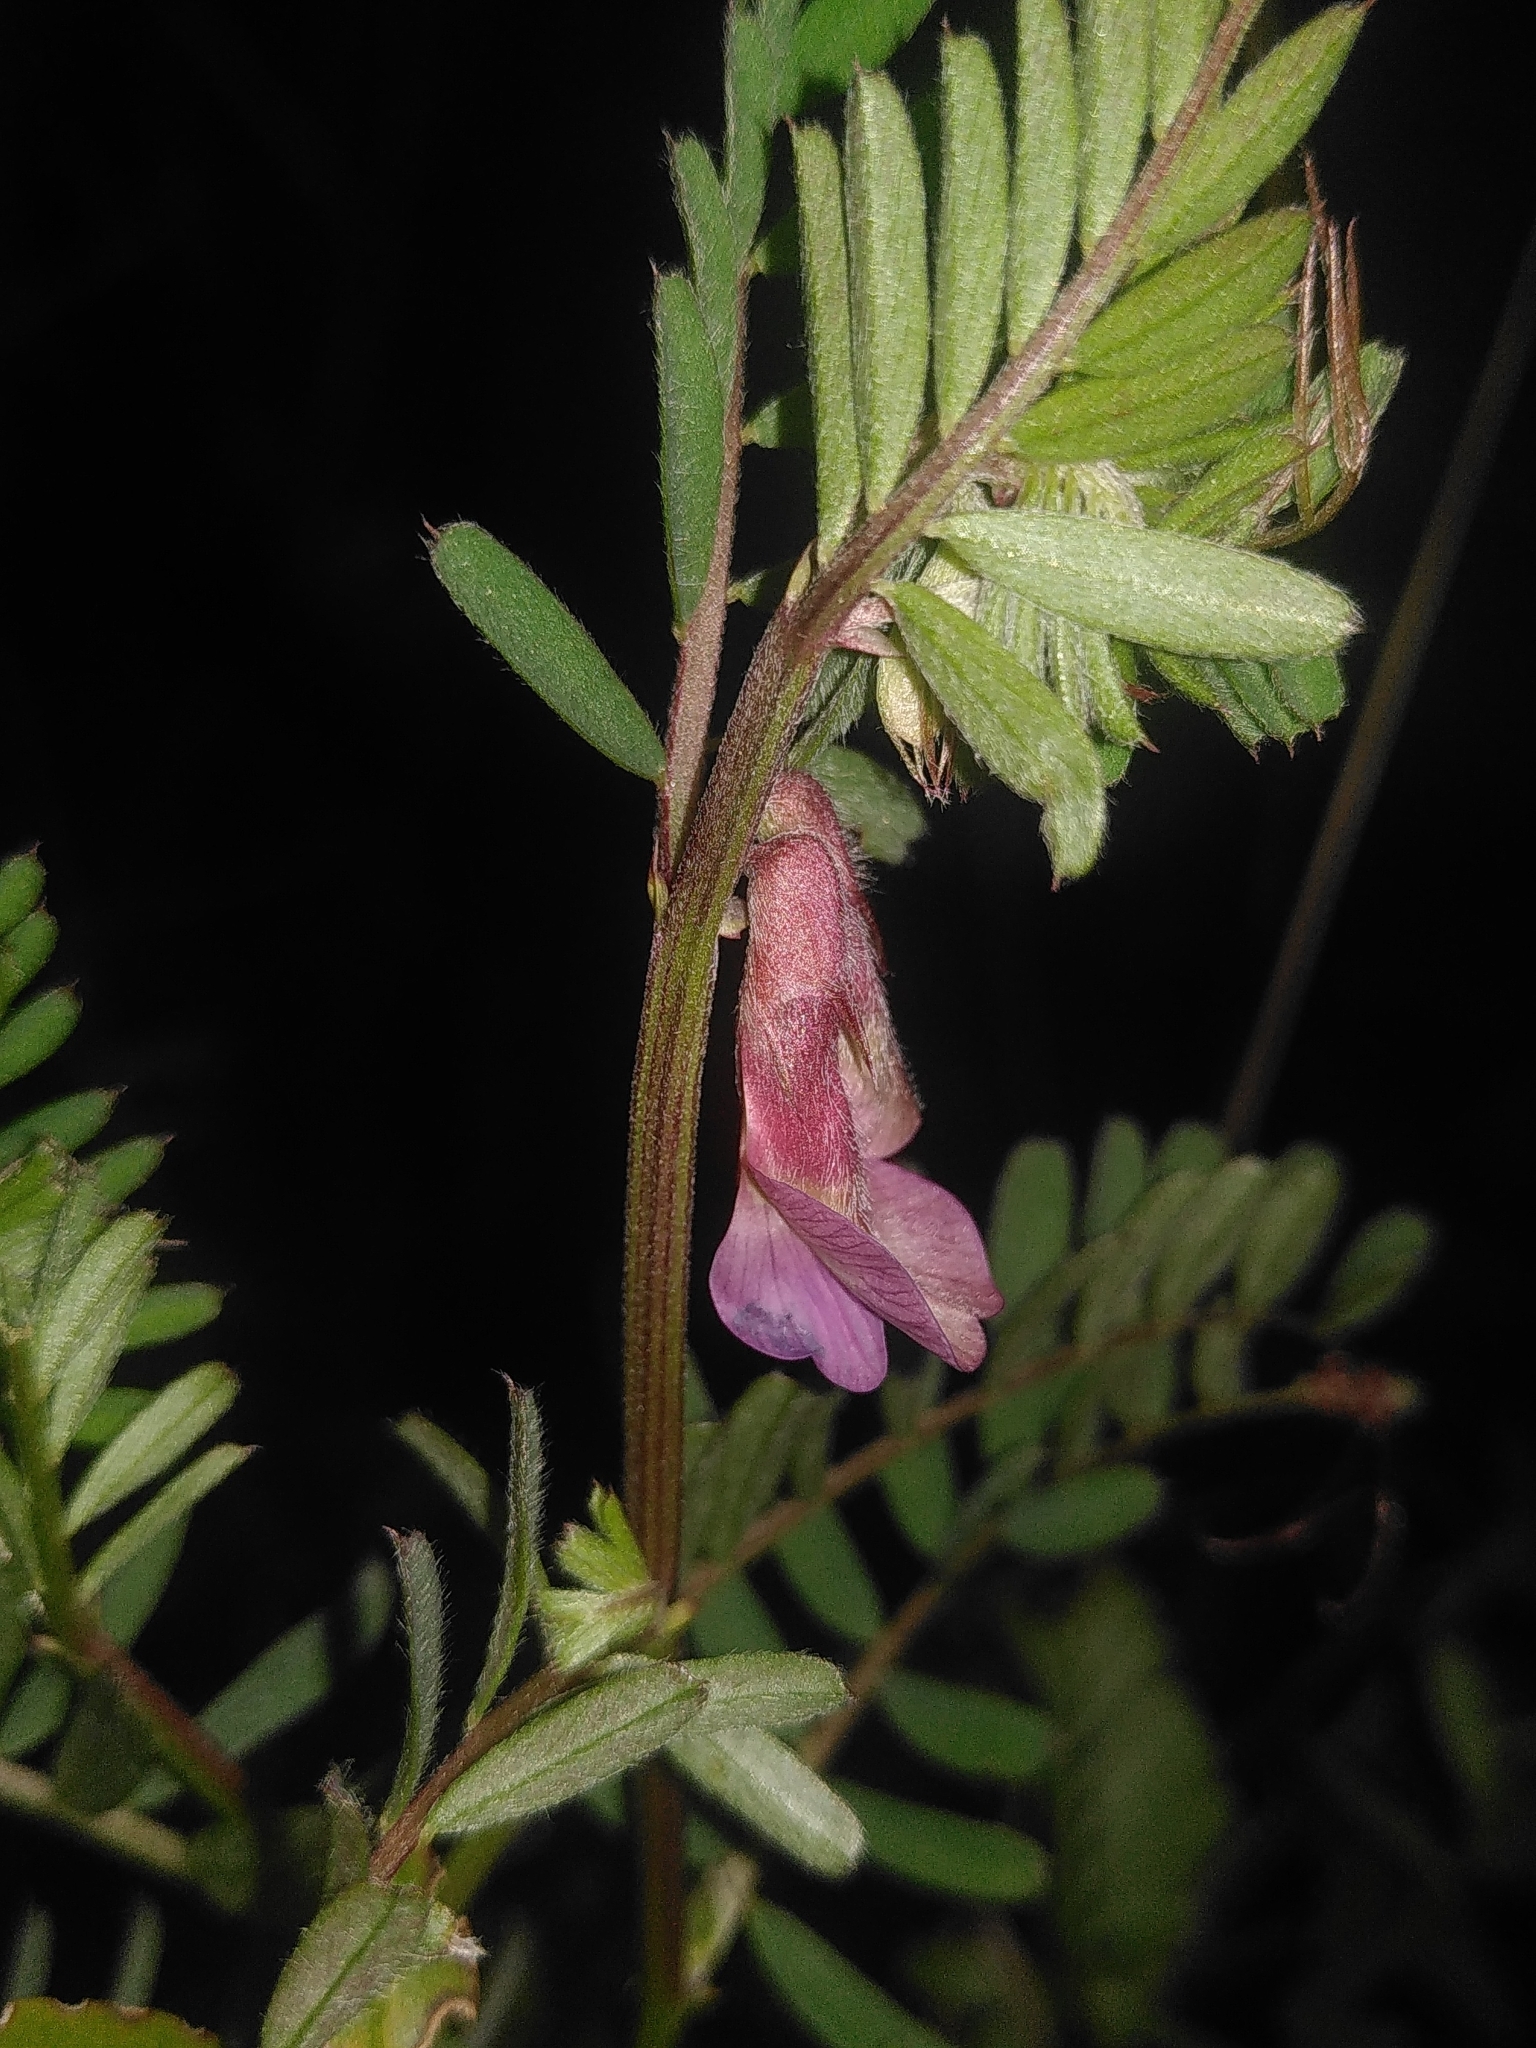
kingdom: Plantae
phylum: Tracheophyta
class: Magnoliopsida
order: Fabales
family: Fabaceae
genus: Vicia
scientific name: Vicia pannonica
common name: Hungarian vetch
